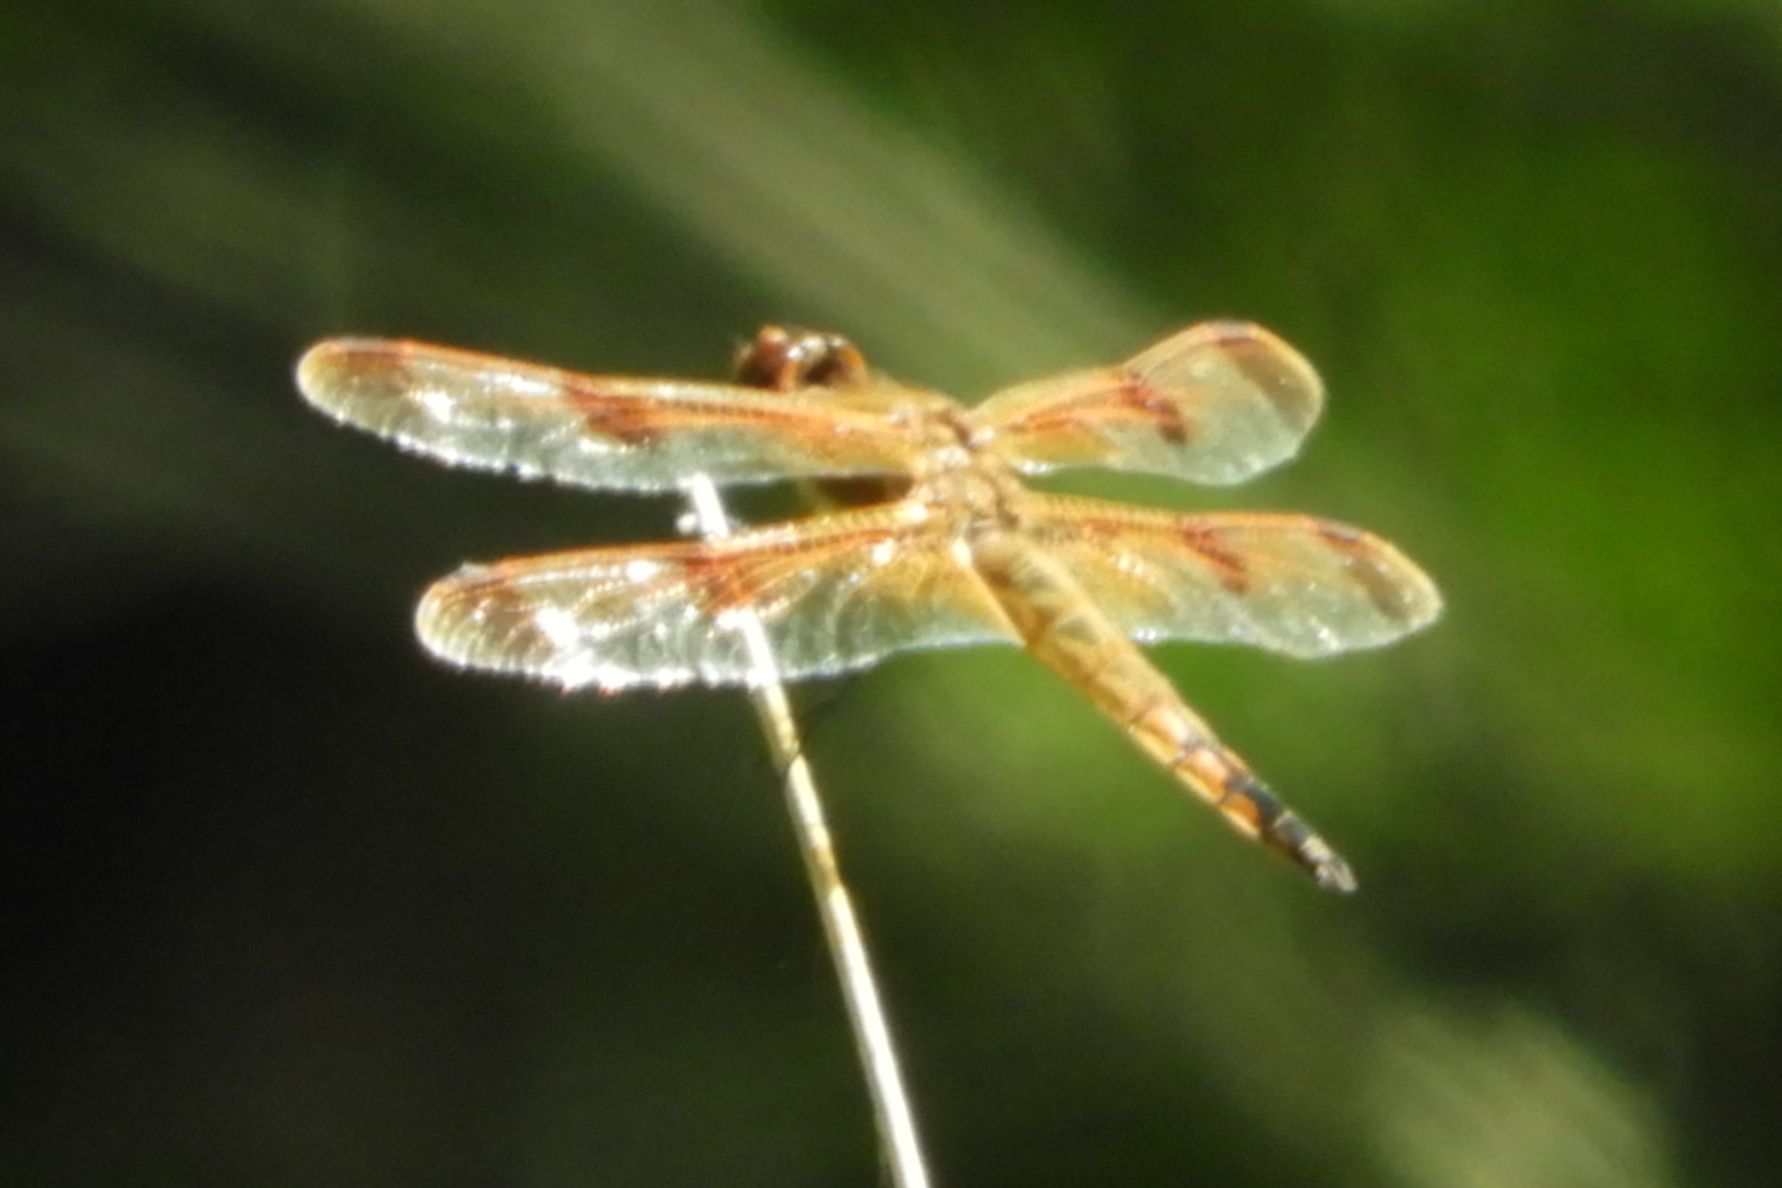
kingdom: Animalia
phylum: Arthropoda
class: Insecta
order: Odonata
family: Libellulidae
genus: Libellula
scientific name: Libellula semifasciata
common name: Painted skimmer
